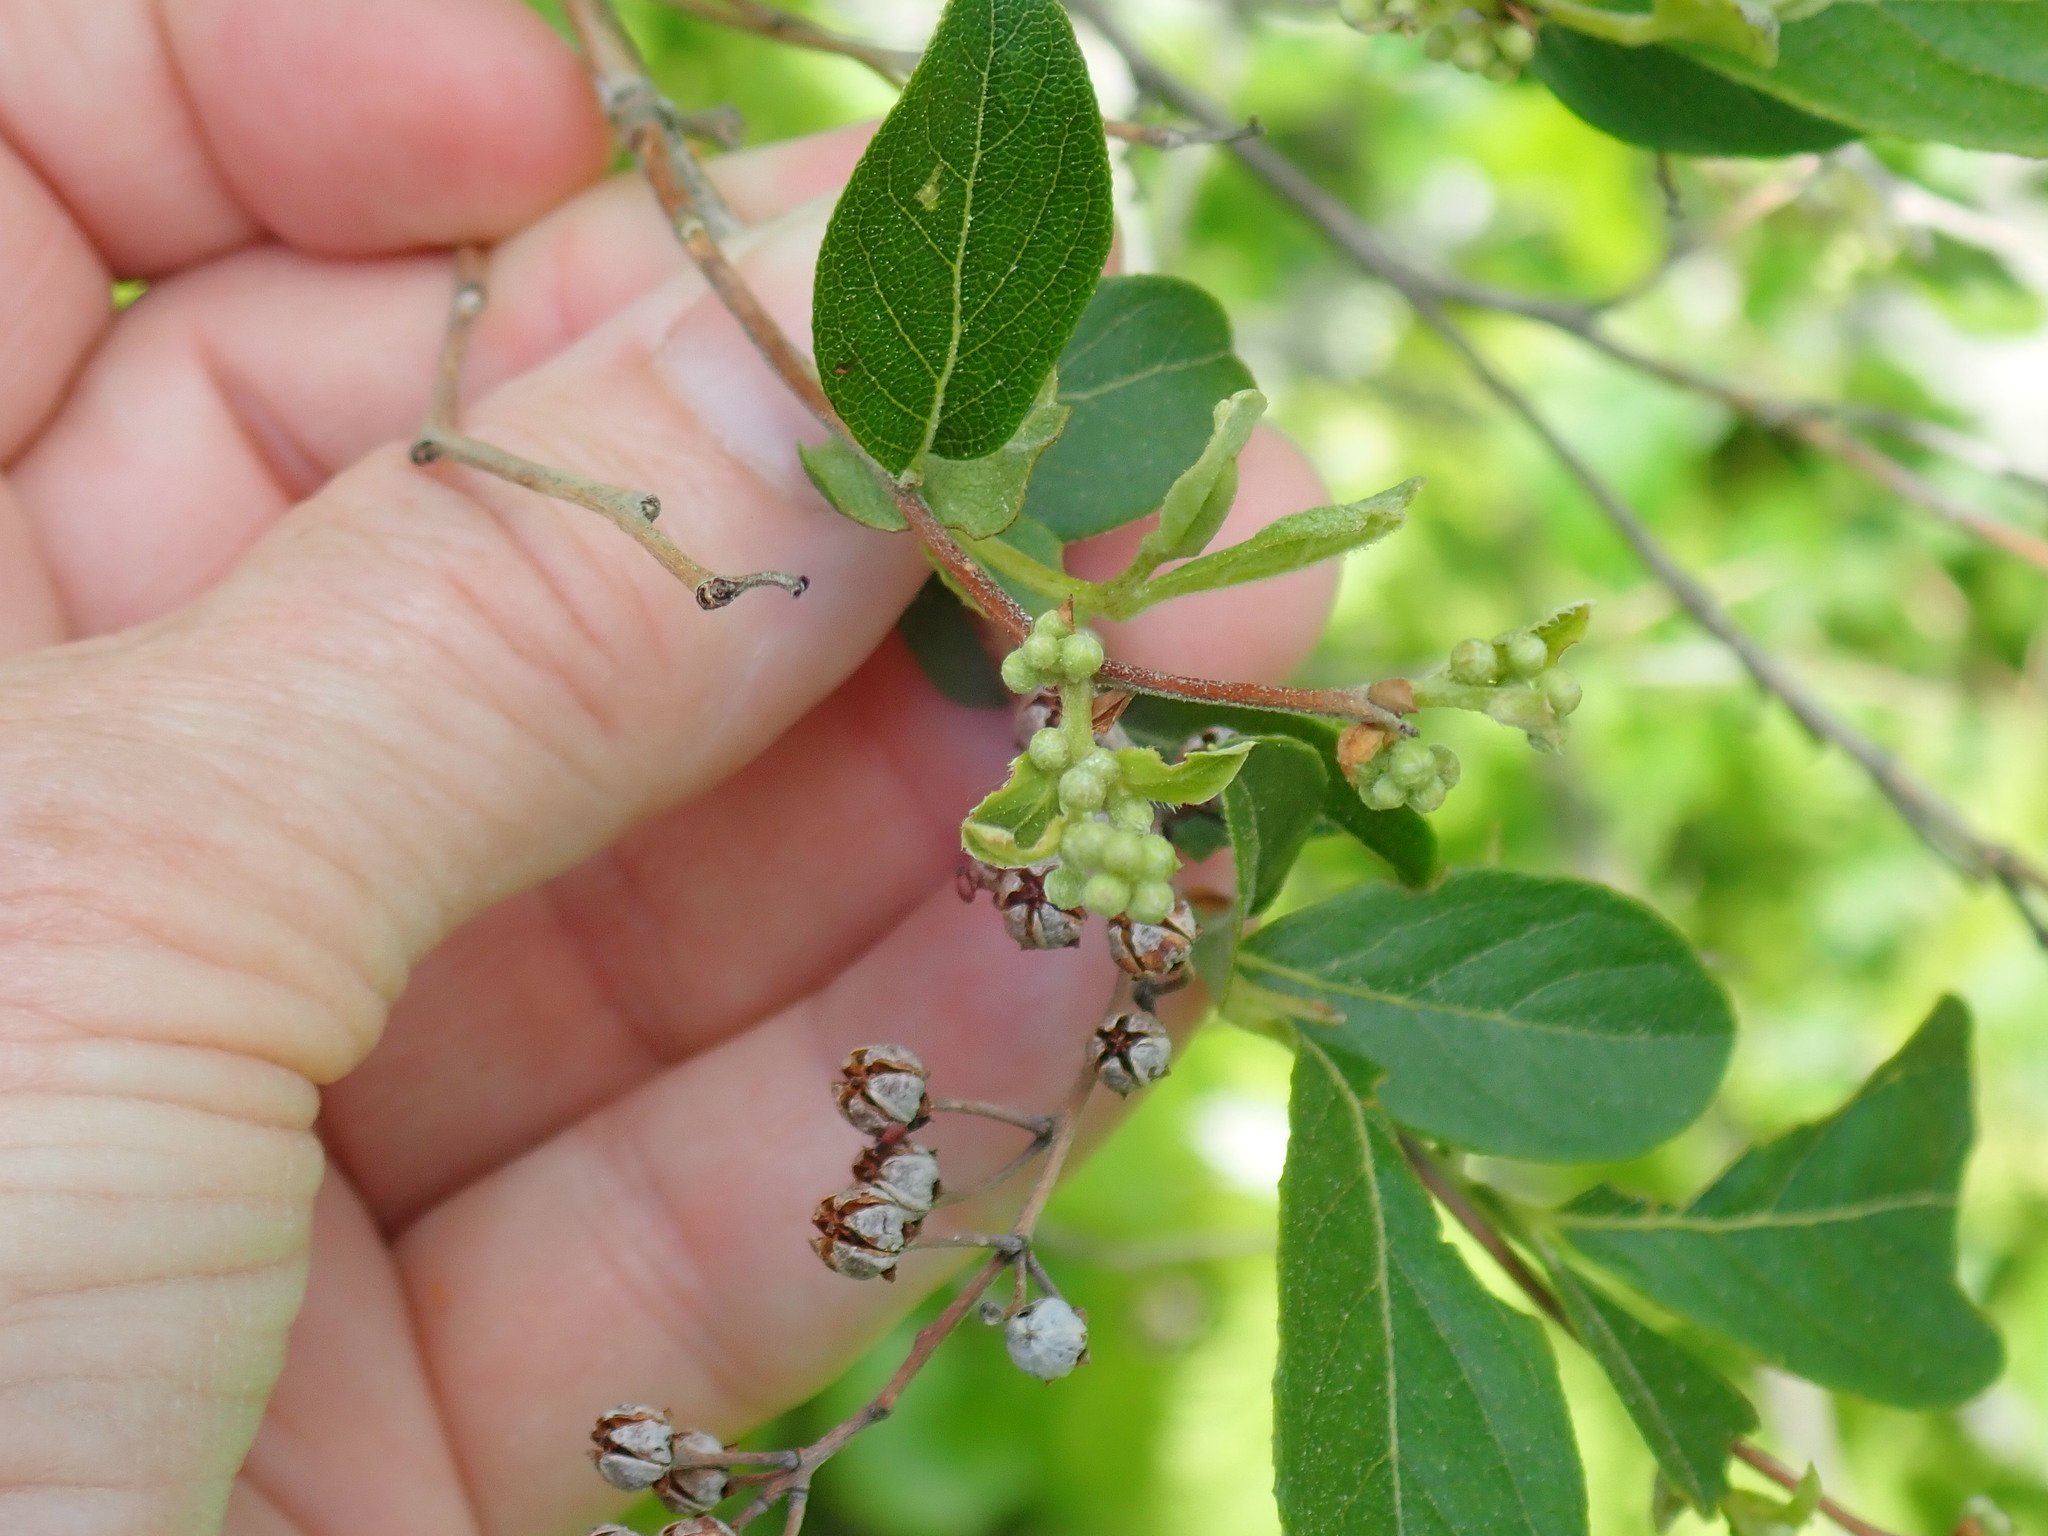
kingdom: Plantae
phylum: Tracheophyta
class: Magnoliopsida
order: Ericales
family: Ericaceae
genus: Lyonia
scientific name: Lyonia ligustrina
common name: Maleberry
